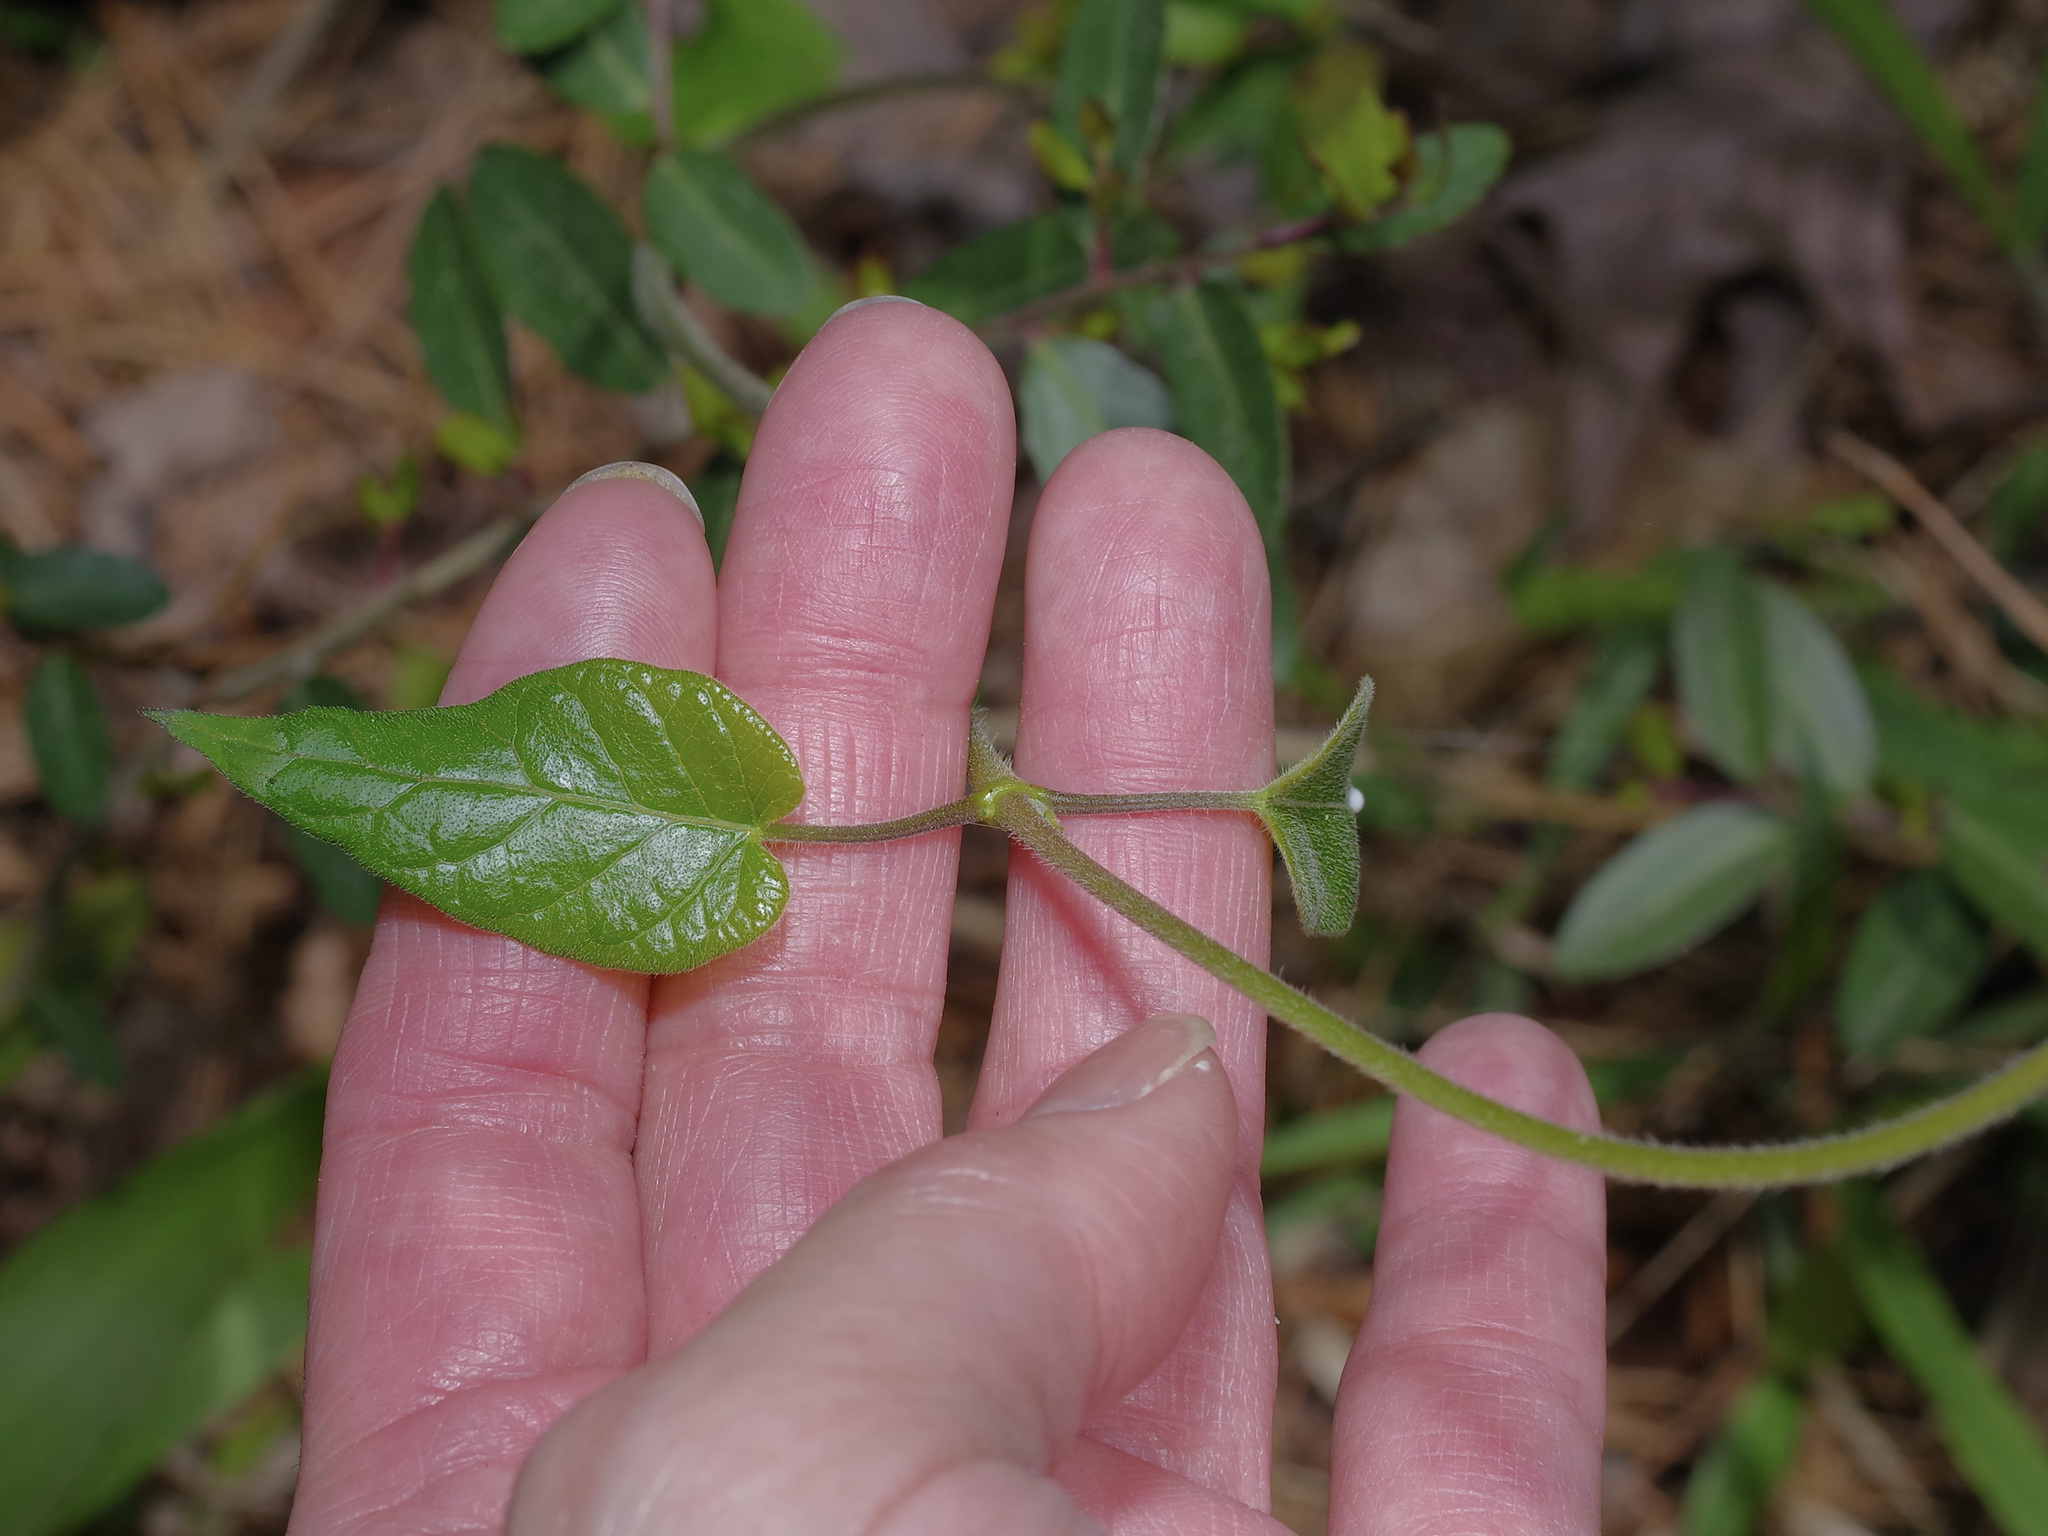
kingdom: Plantae
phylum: Tracheophyta
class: Magnoliopsida
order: Gentianales
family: Apocynaceae
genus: Gonolobus
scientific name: Gonolobus suberosus
